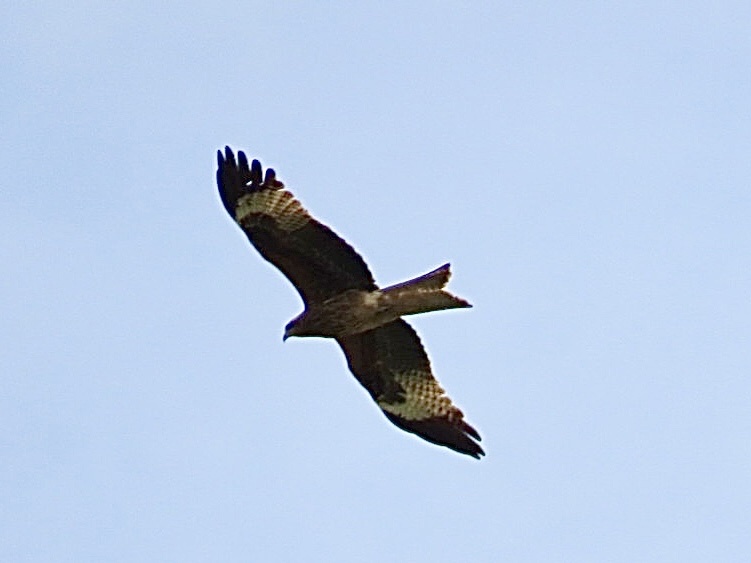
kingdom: Animalia
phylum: Chordata
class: Aves
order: Accipitriformes
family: Accipitridae
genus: Milvus
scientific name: Milvus migrans
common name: Black kite
